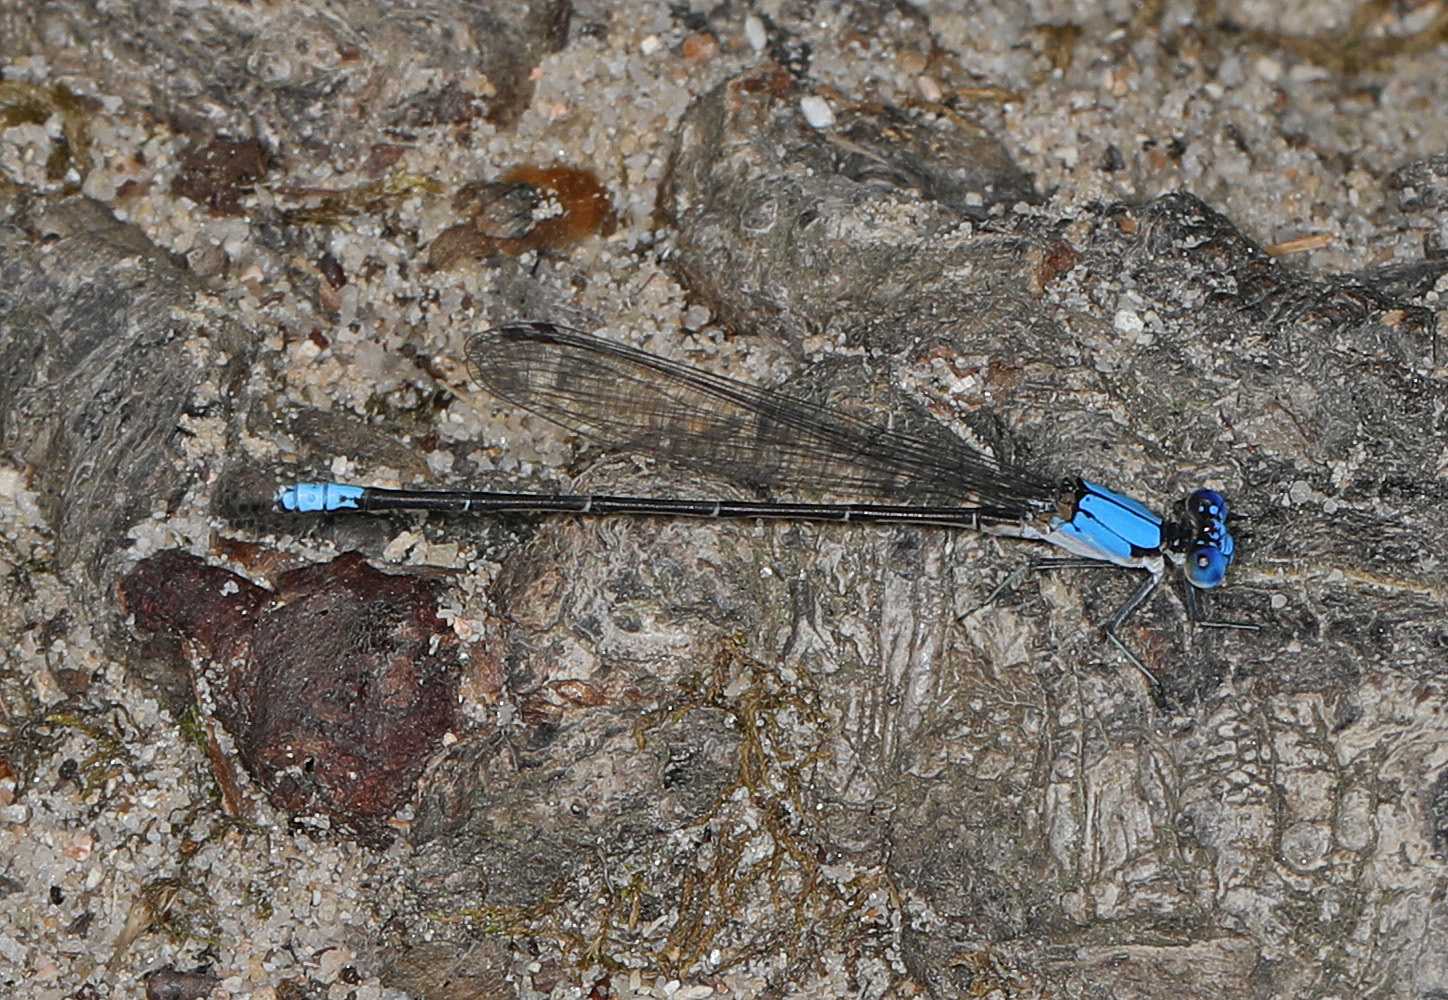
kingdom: Animalia
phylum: Arthropoda
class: Insecta
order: Odonata
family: Coenagrionidae
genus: Argia
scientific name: Argia apicalis
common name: Blue-fronted dancer
